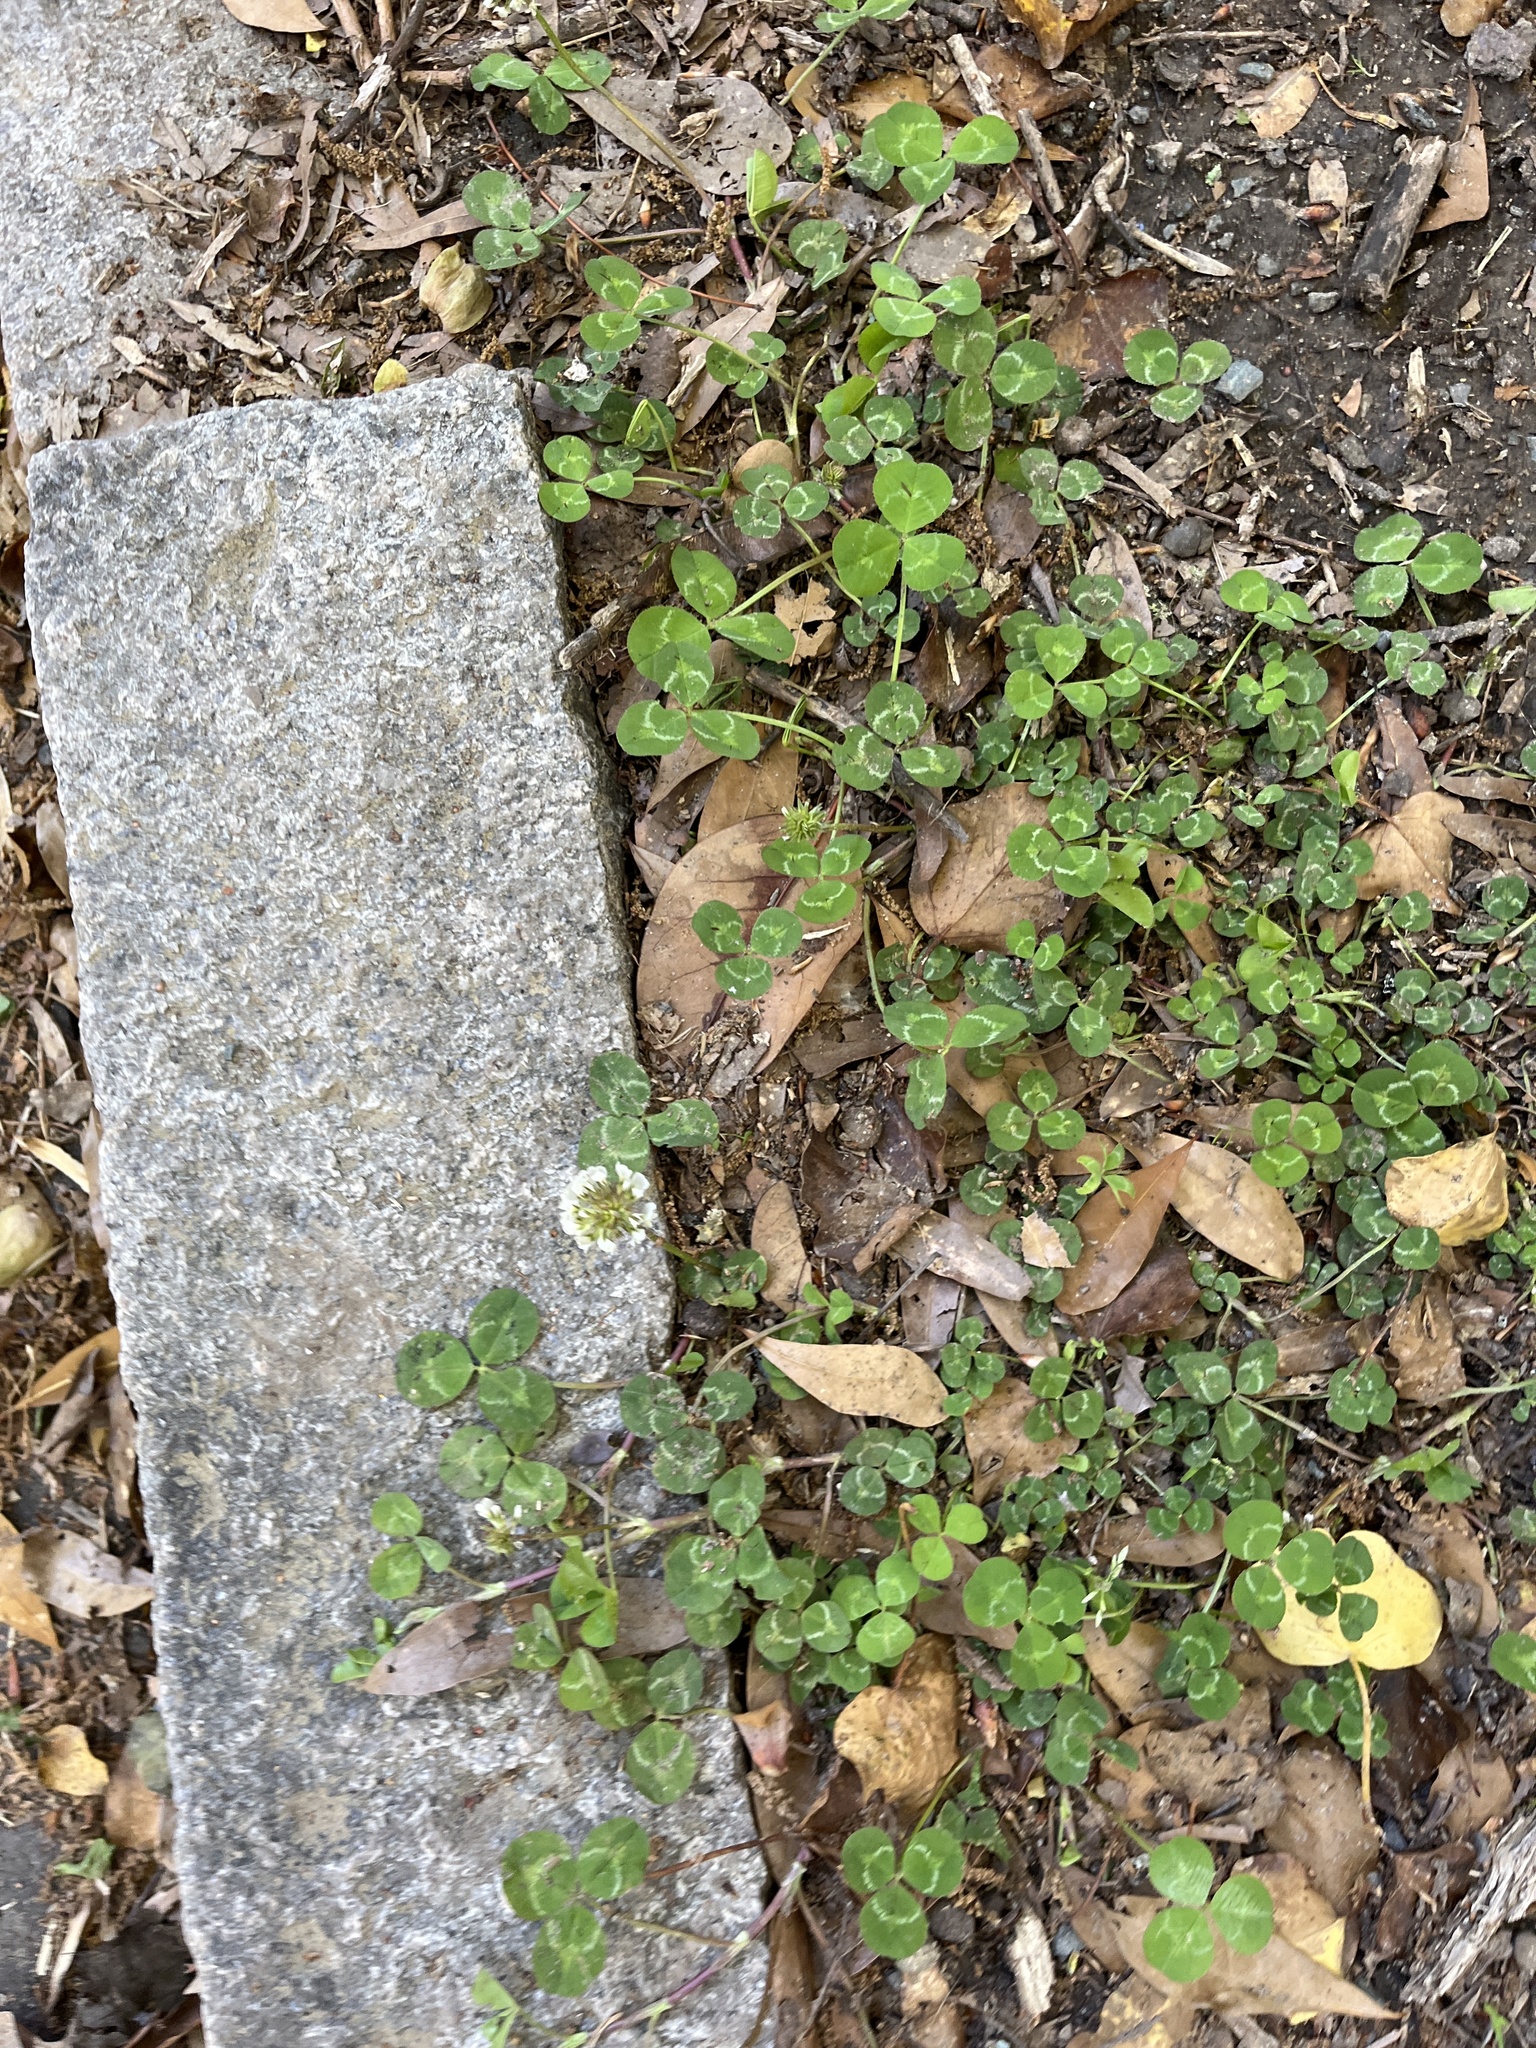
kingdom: Plantae
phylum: Tracheophyta
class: Magnoliopsida
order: Fabales
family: Fabaceae
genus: Trifolium
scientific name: Trifolium repens
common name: White clover
